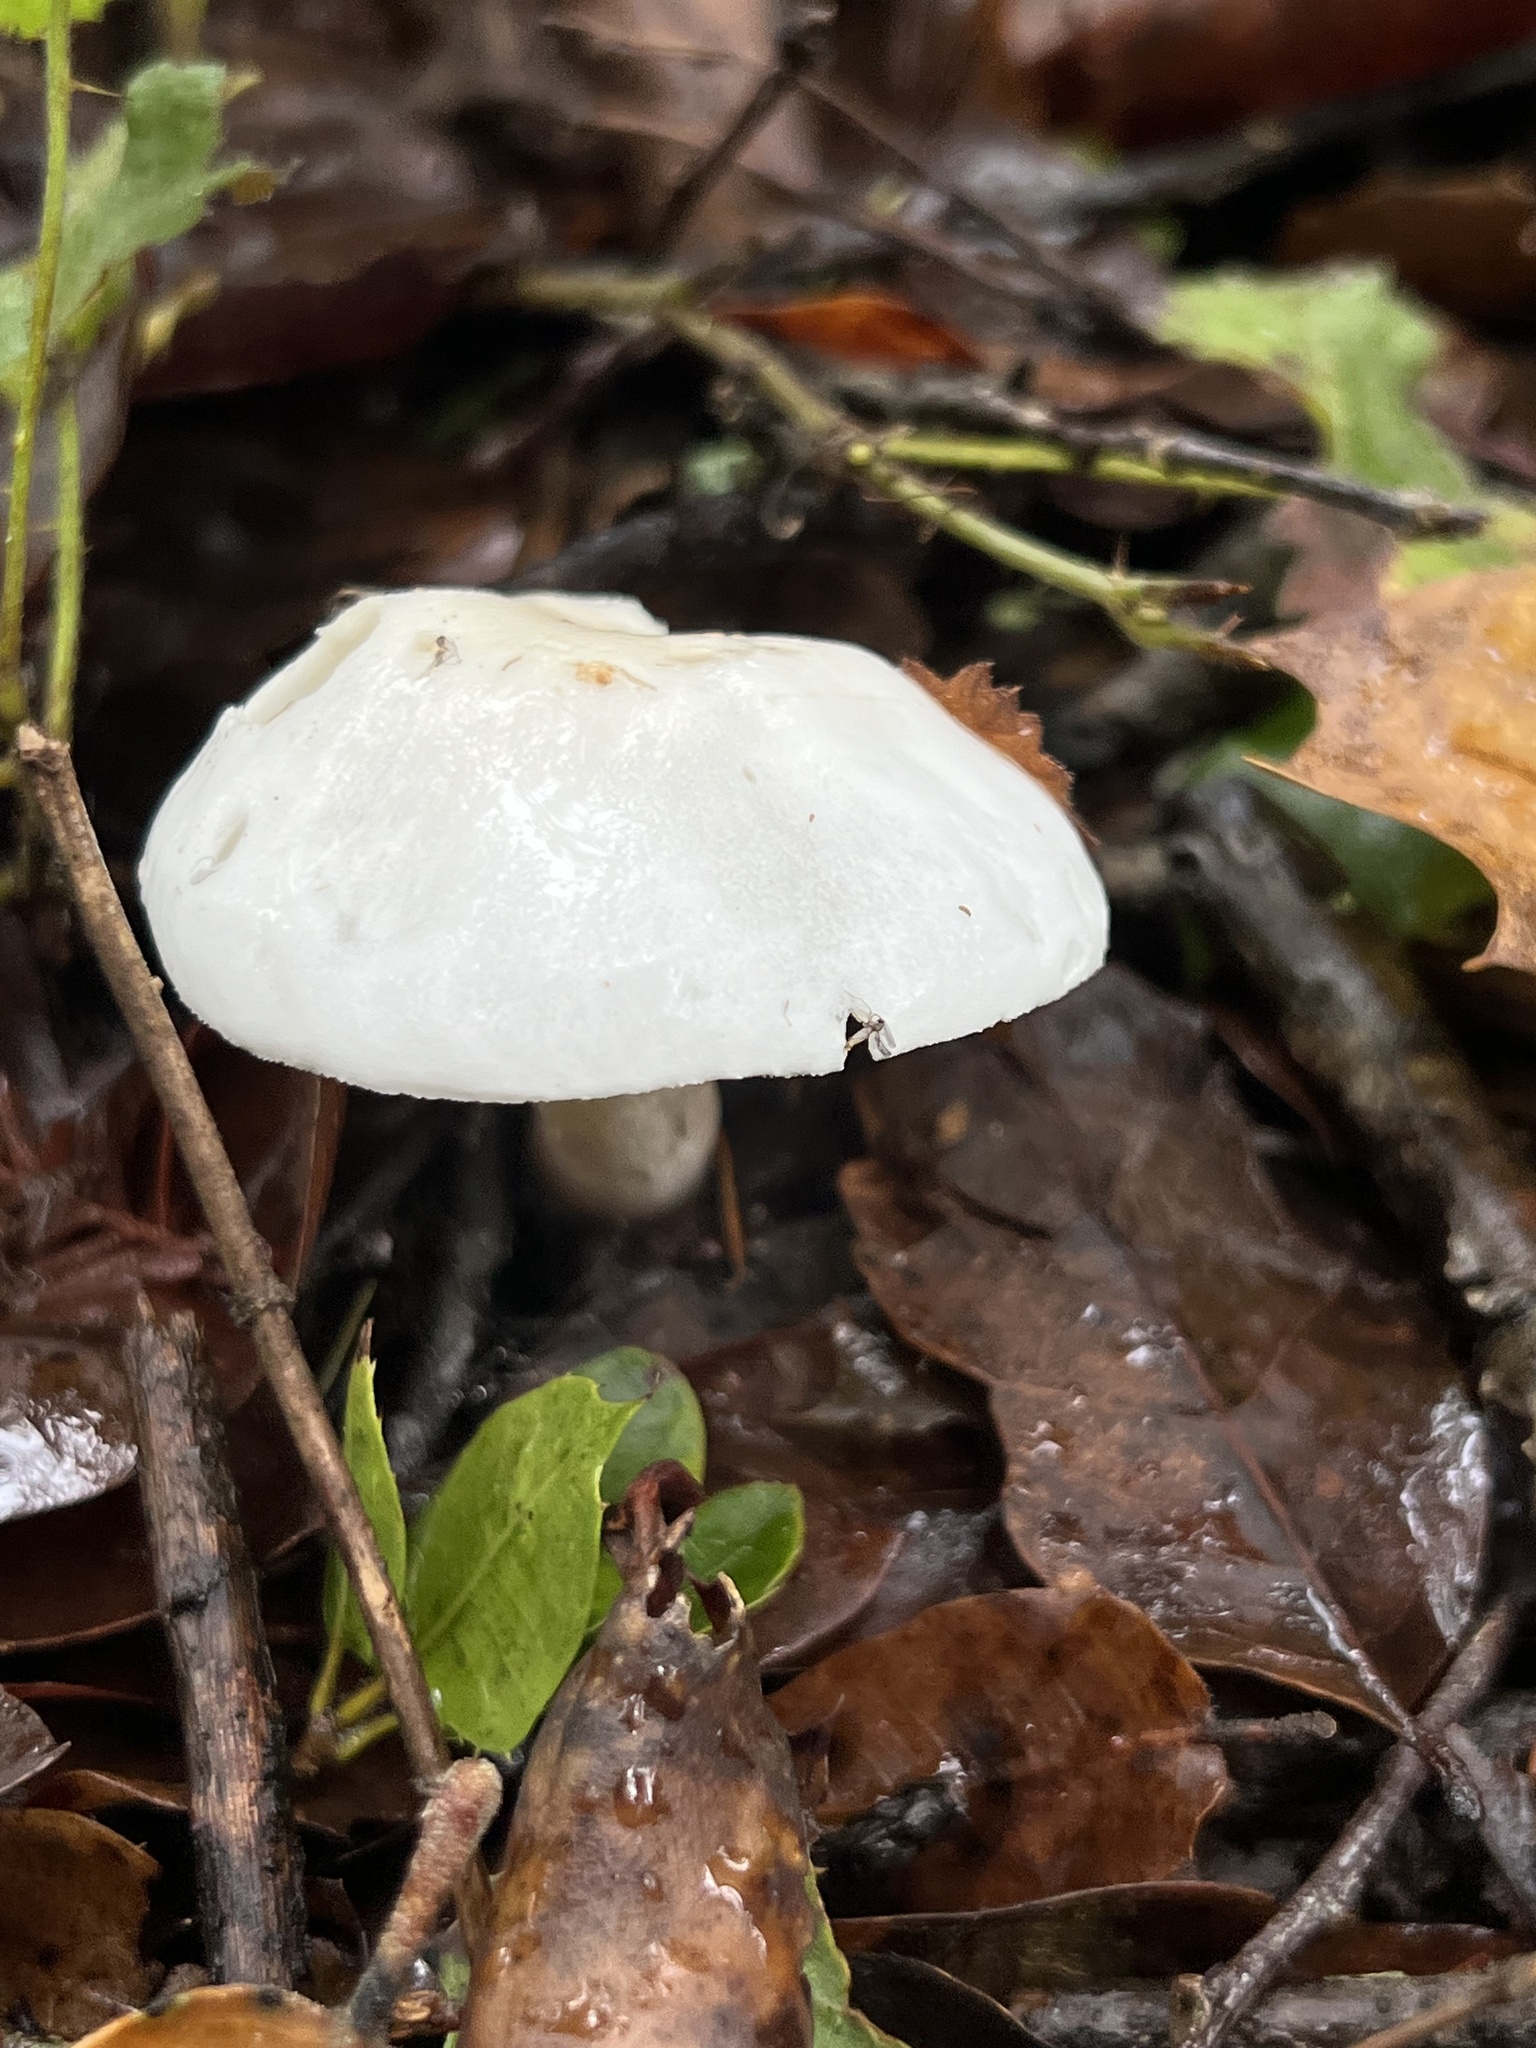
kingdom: Fungi
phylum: Basidiomycota
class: Agaricomycetes
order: Agaricales
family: Hygrophoraceae
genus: Hygrophorus
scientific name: Hygrophorus eburneus
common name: Ivory wax-cap
